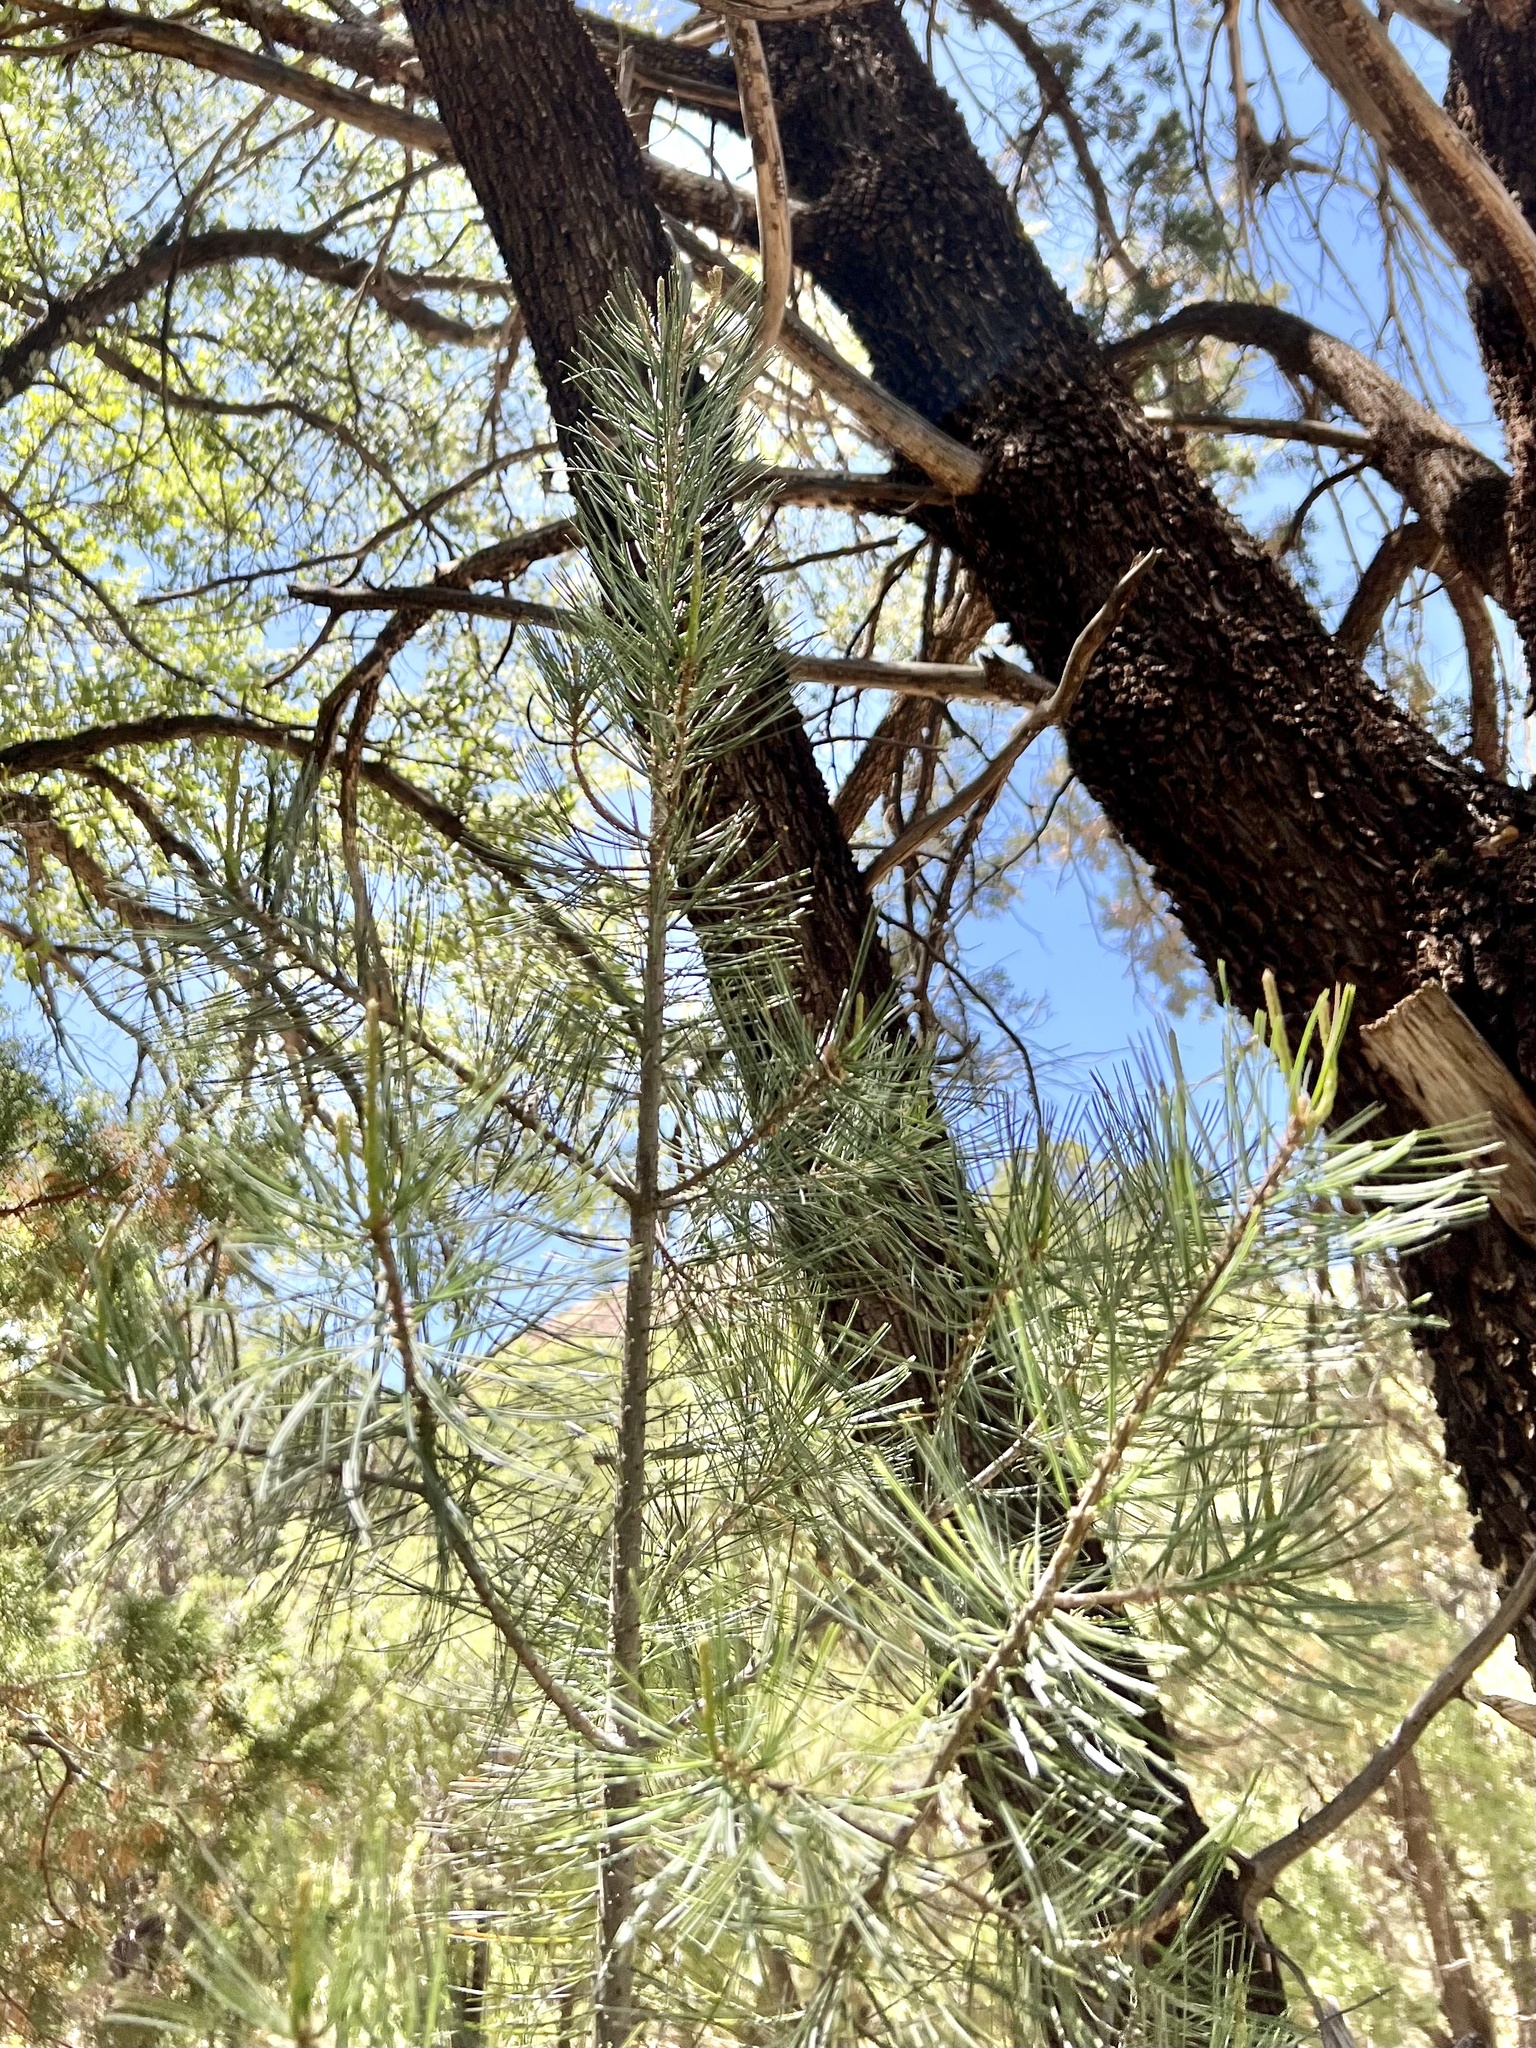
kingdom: Plantae
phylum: Tracheophyta
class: Pinopsida
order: Pinales
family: Pinaceae
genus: Pinus
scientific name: Pinus discolor
